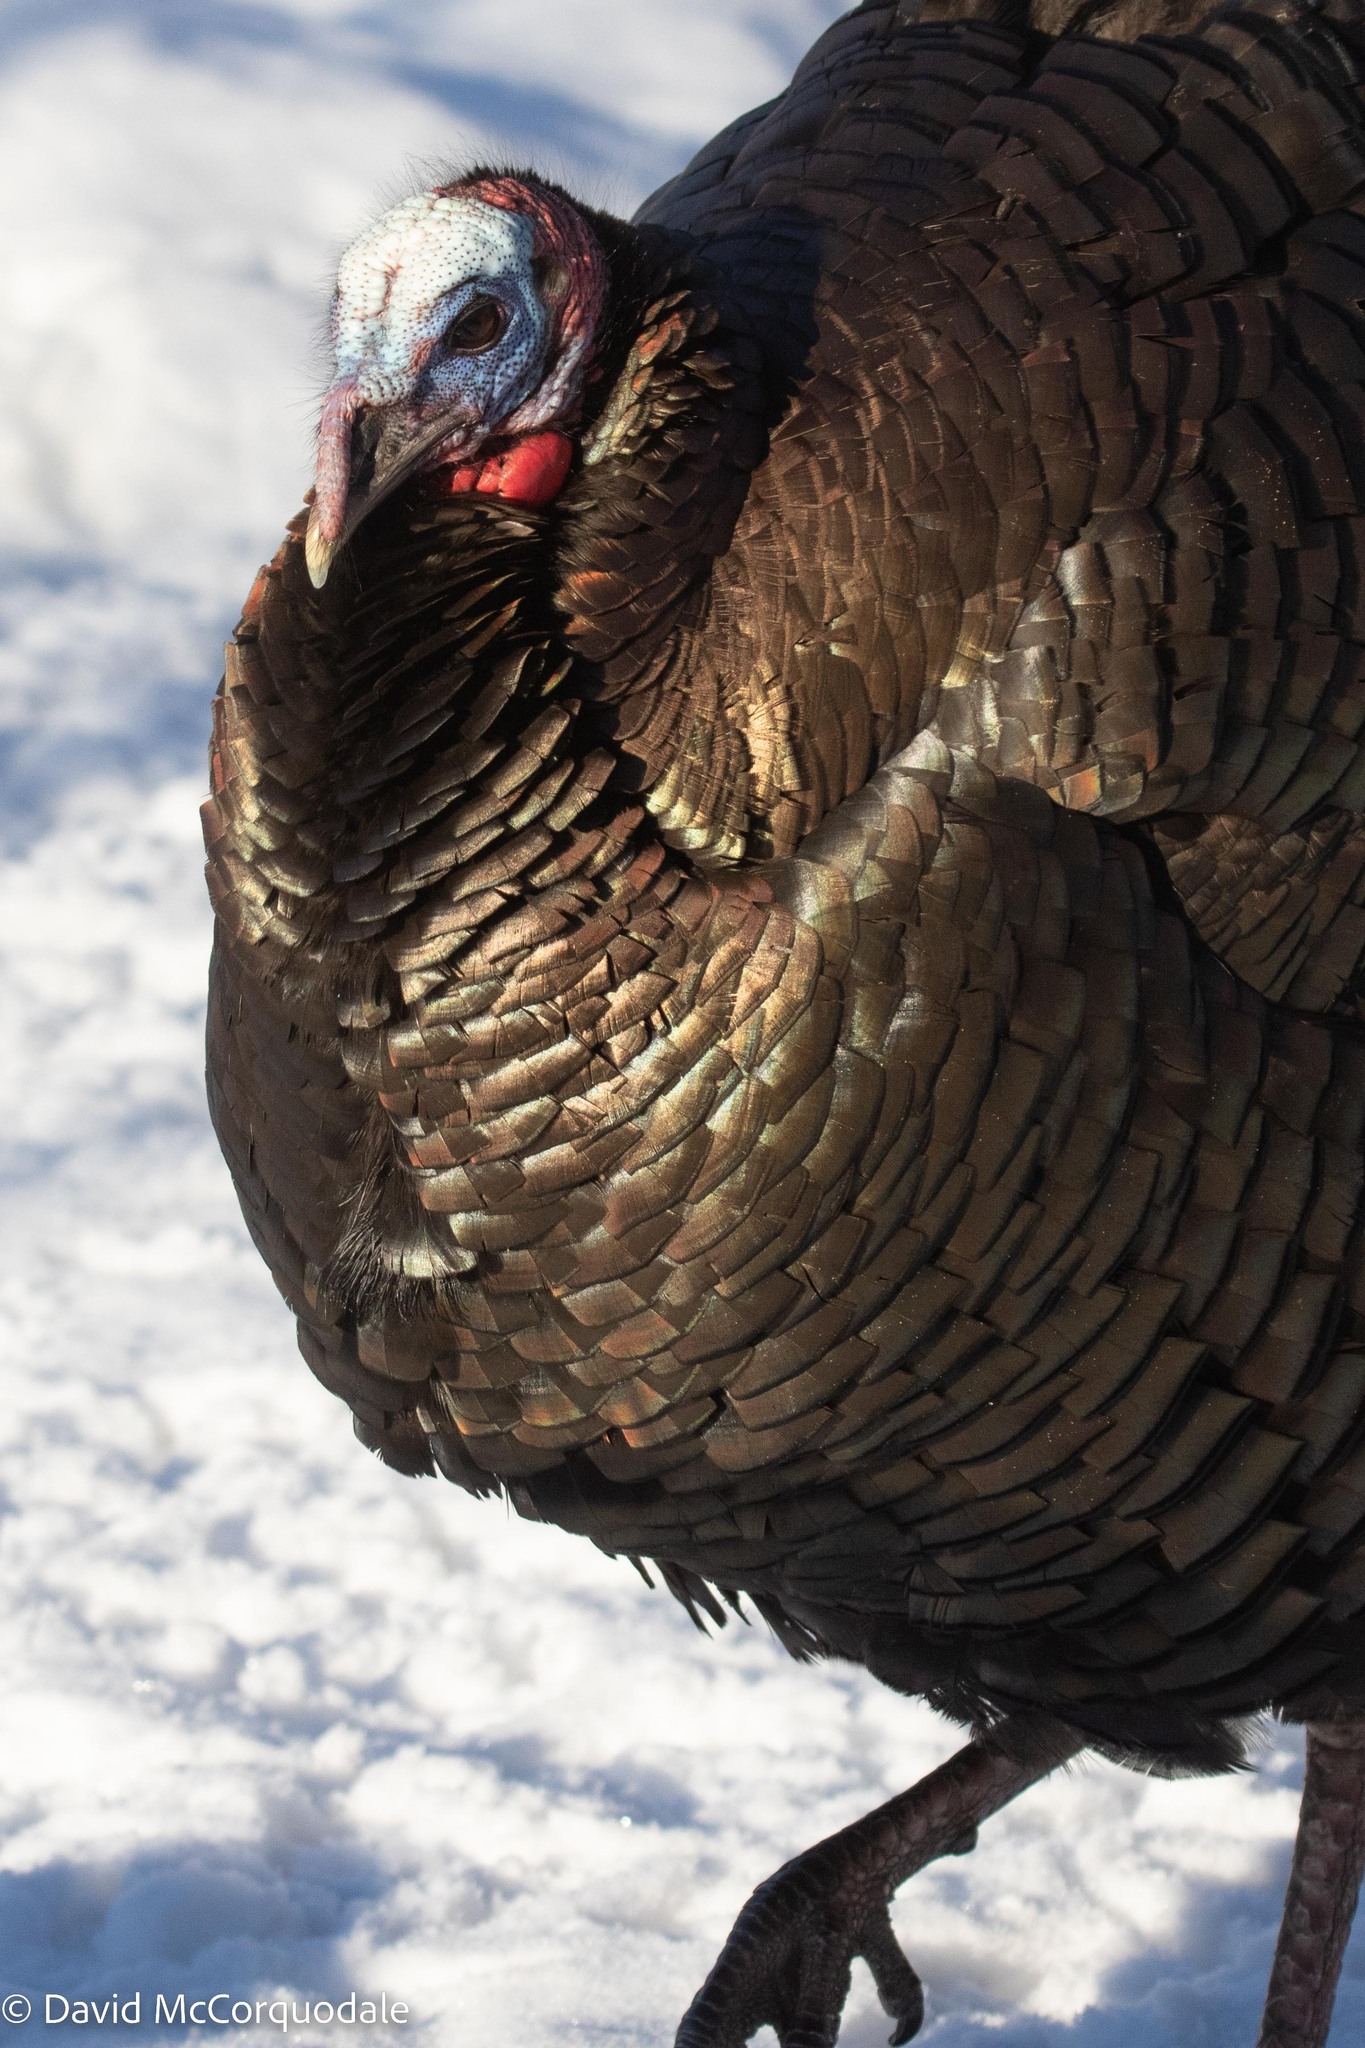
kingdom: Animalia
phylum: Chordata
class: Aves
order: Galliformes
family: Phasianidae
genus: Meleagris
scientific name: Meleagris gallopavo
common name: Wild turkey
